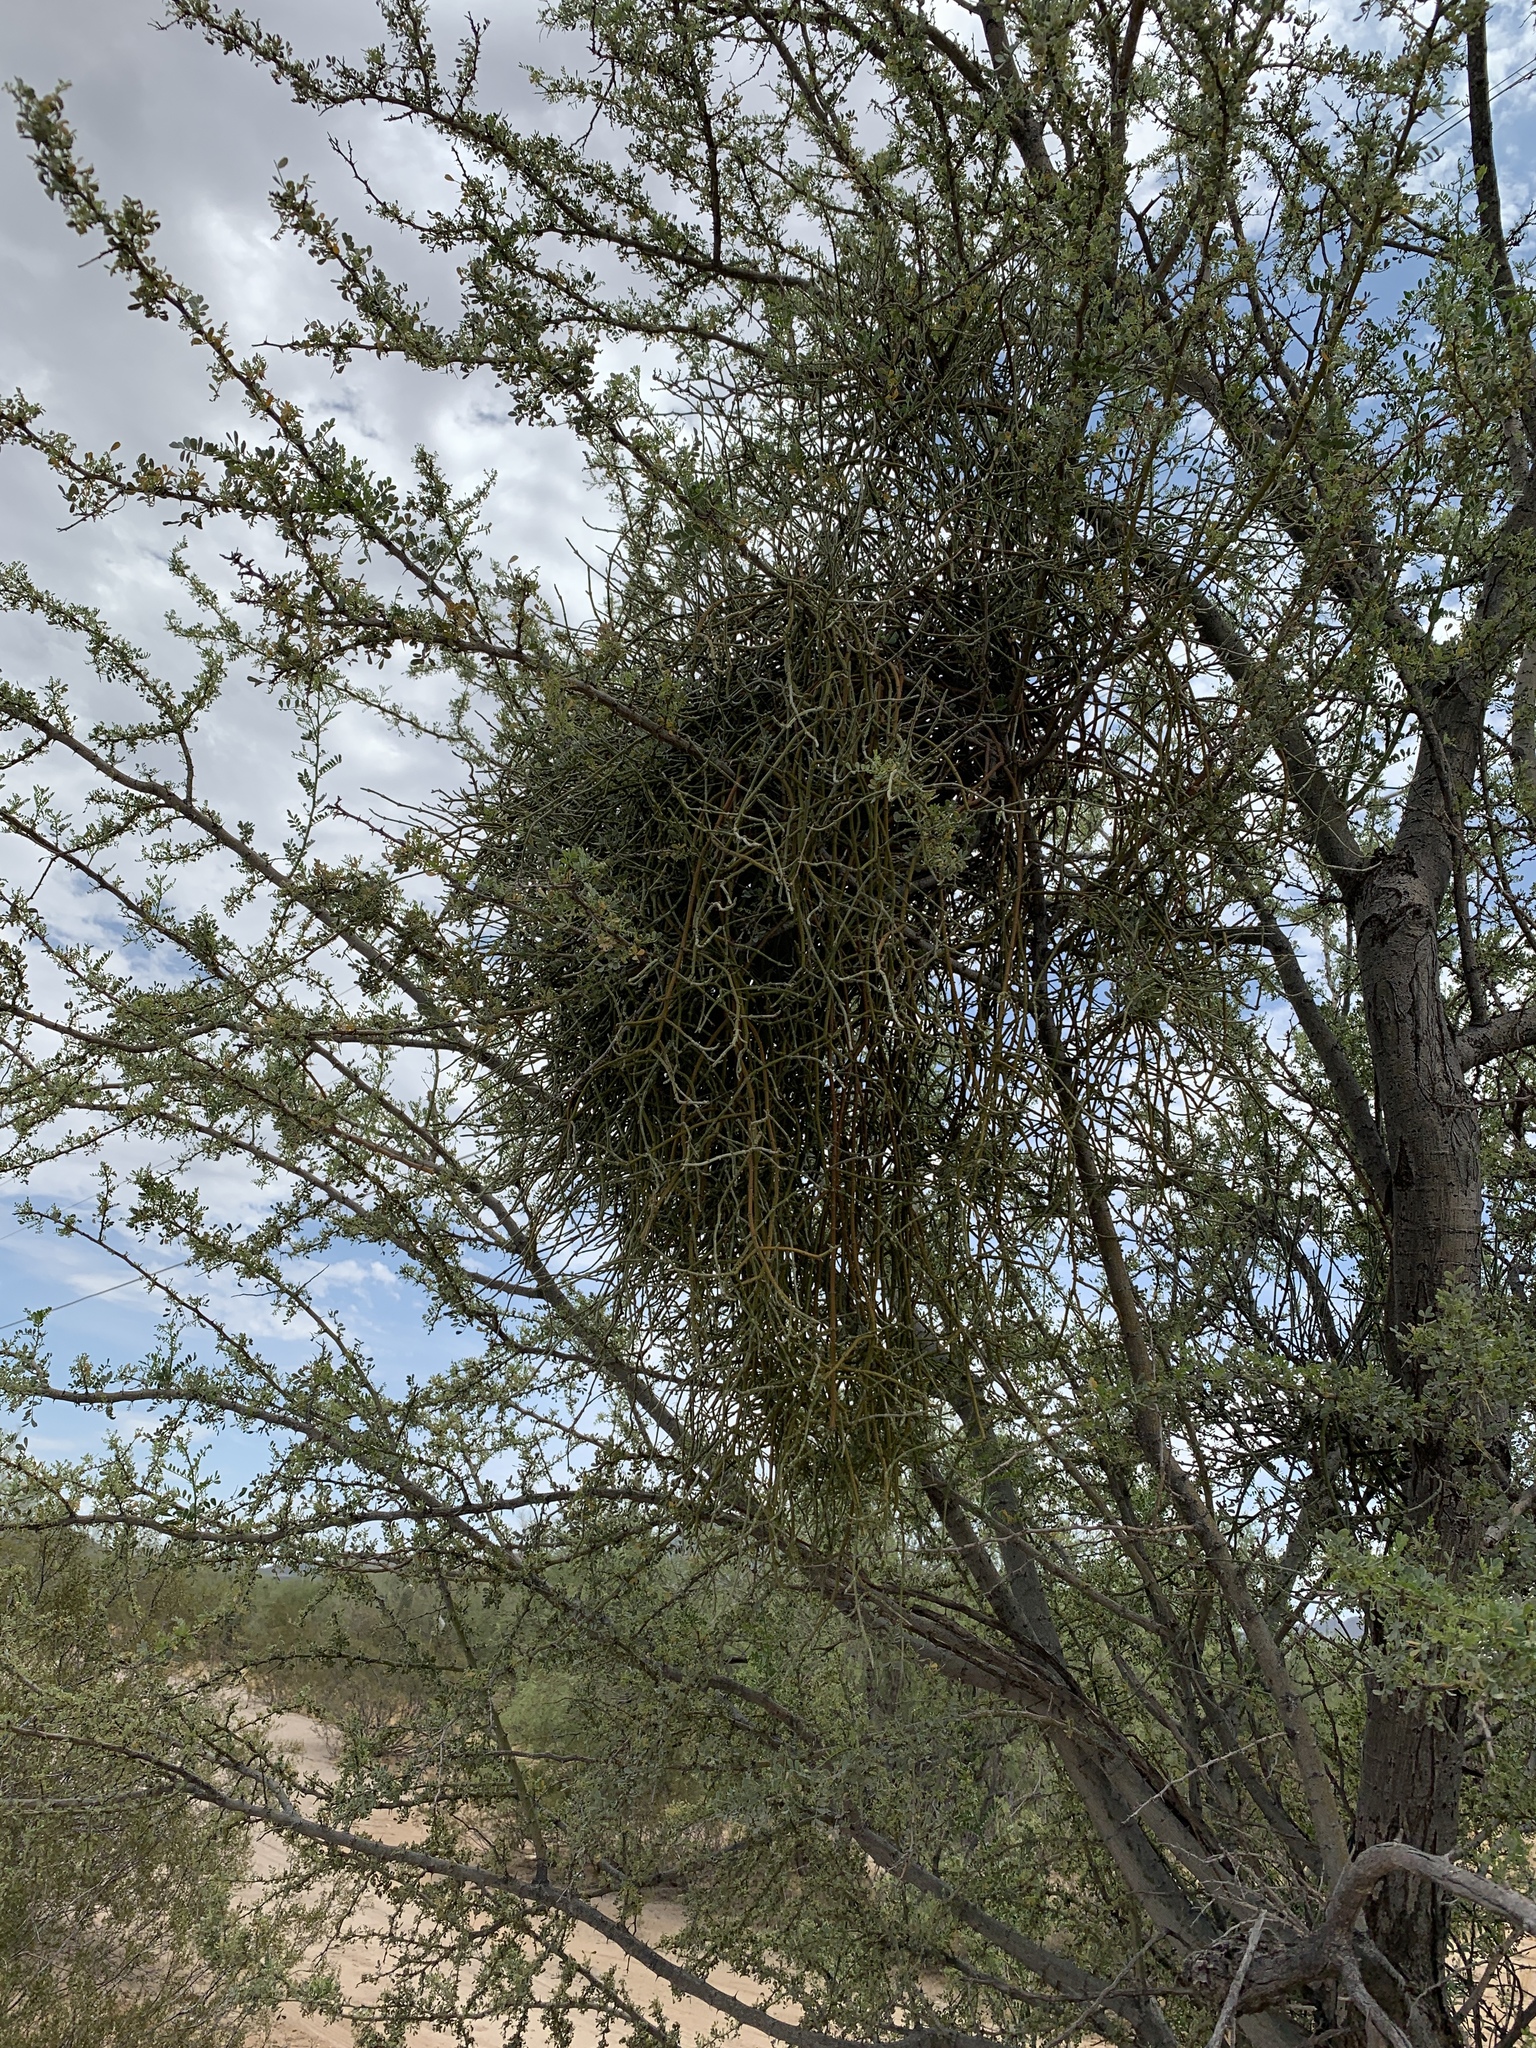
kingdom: Plantae
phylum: Tracheophyta
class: Magnoliopsida
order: Santalales
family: Viscaceae
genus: Phoradendron
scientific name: Phoradendron californicum
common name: Acacia mistletoe
